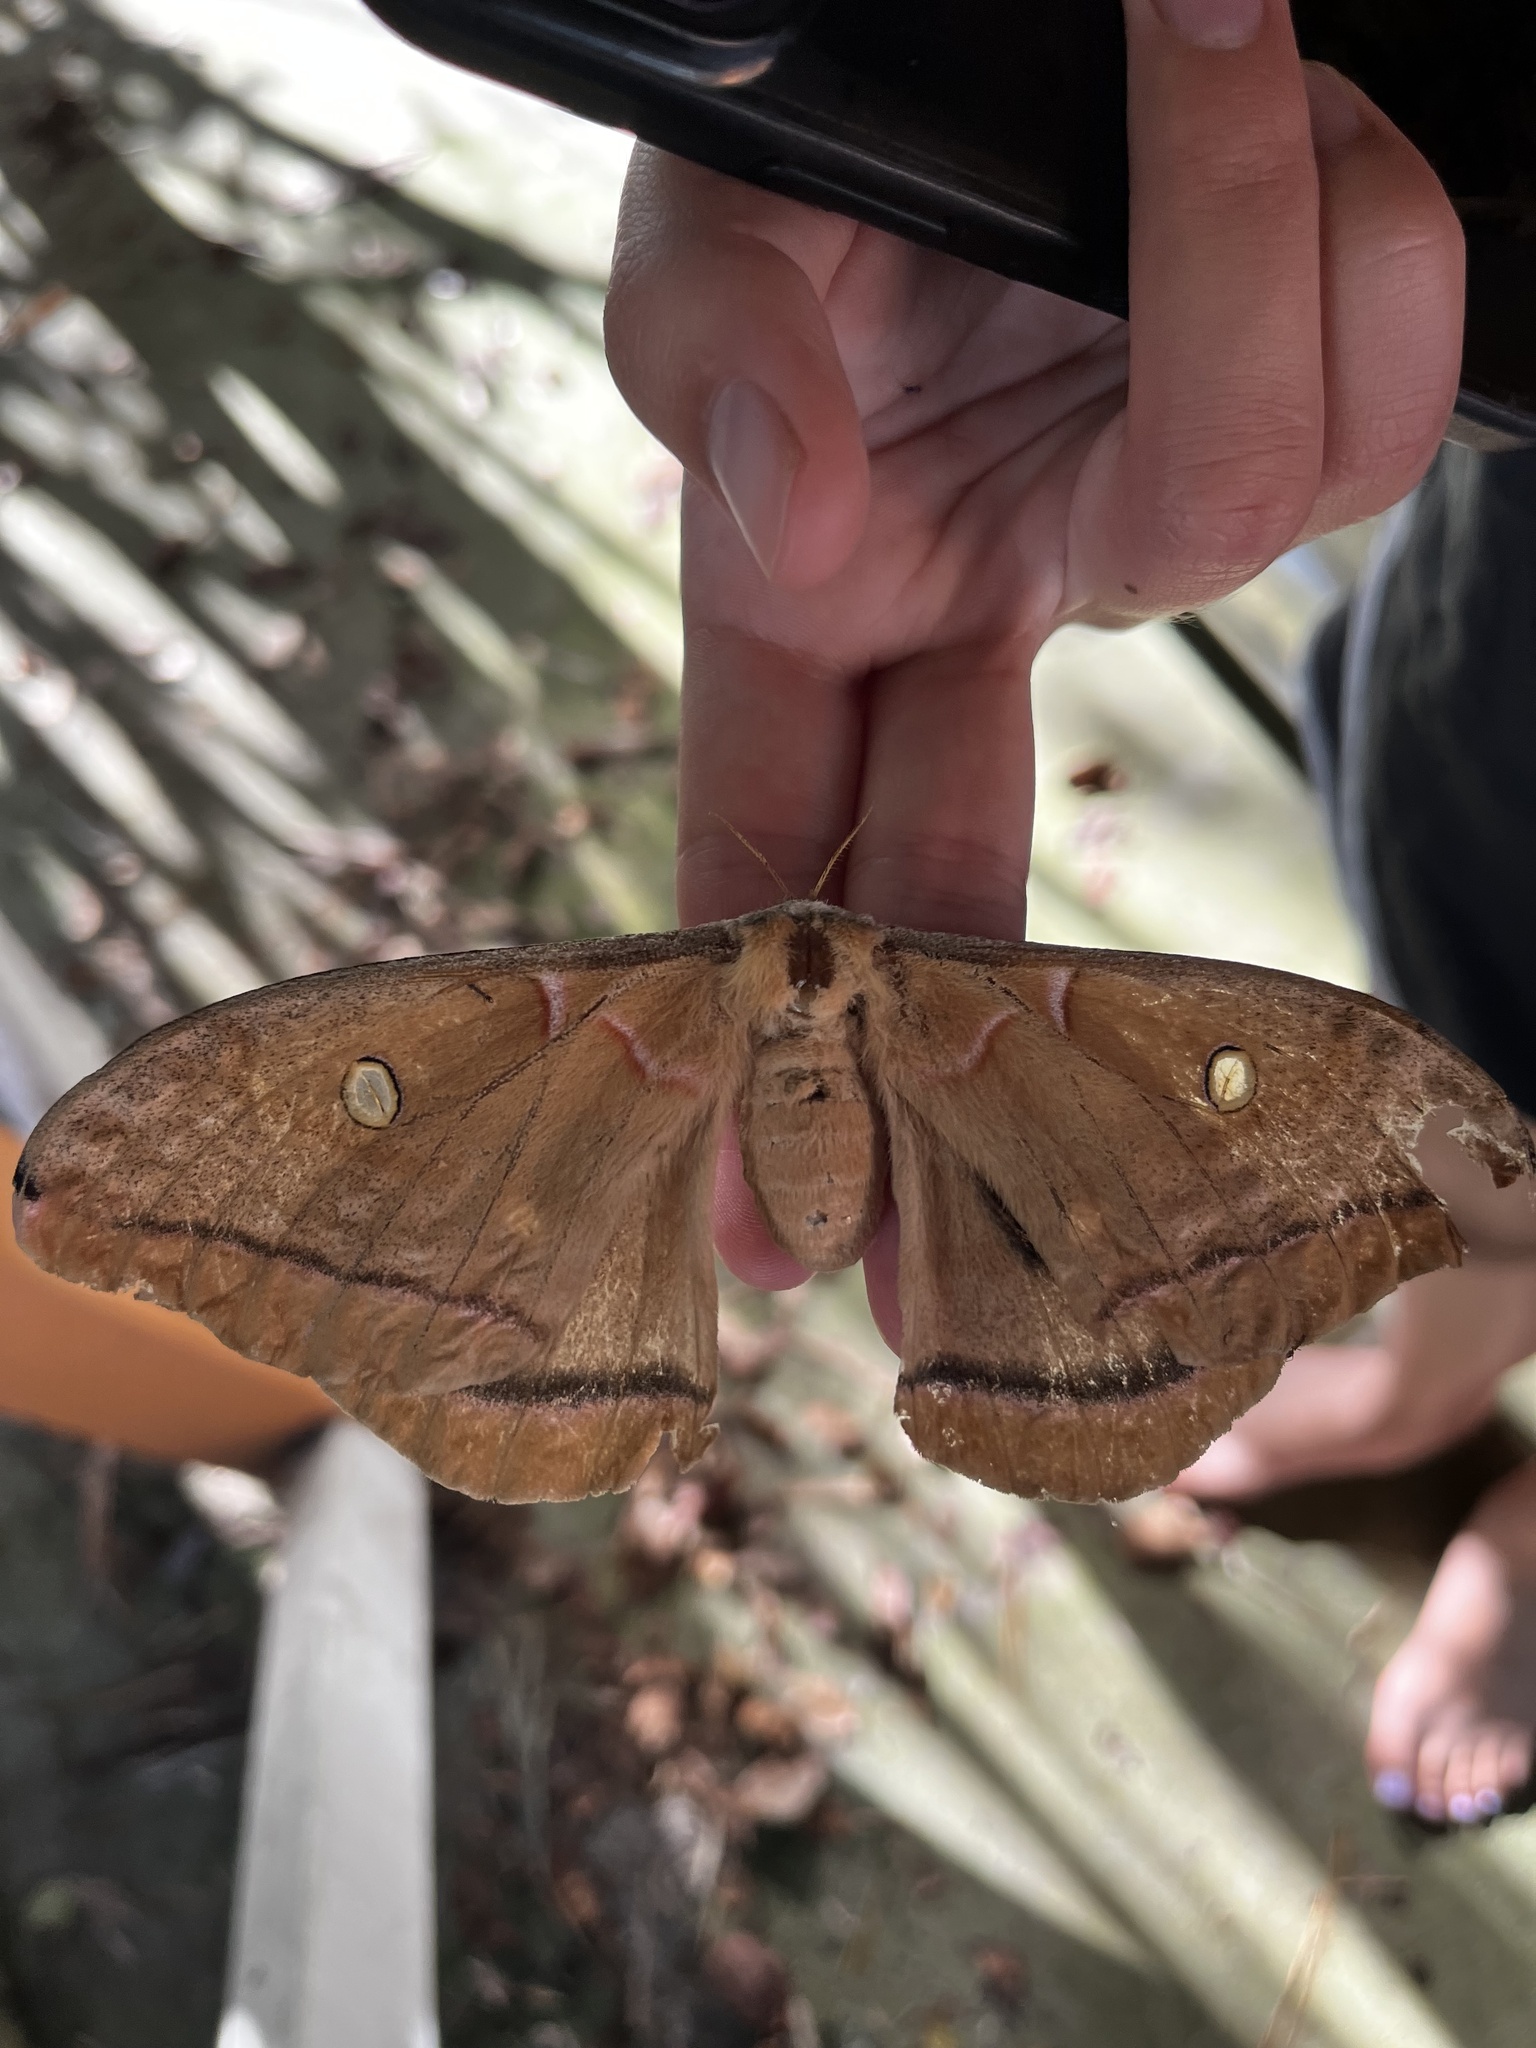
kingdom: Animalia
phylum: Arthropoda
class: Insecta
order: Lepidoptera
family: Saturniidae
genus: Antheraea
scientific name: Antheraea polyphemus
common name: Polyphemus moth
